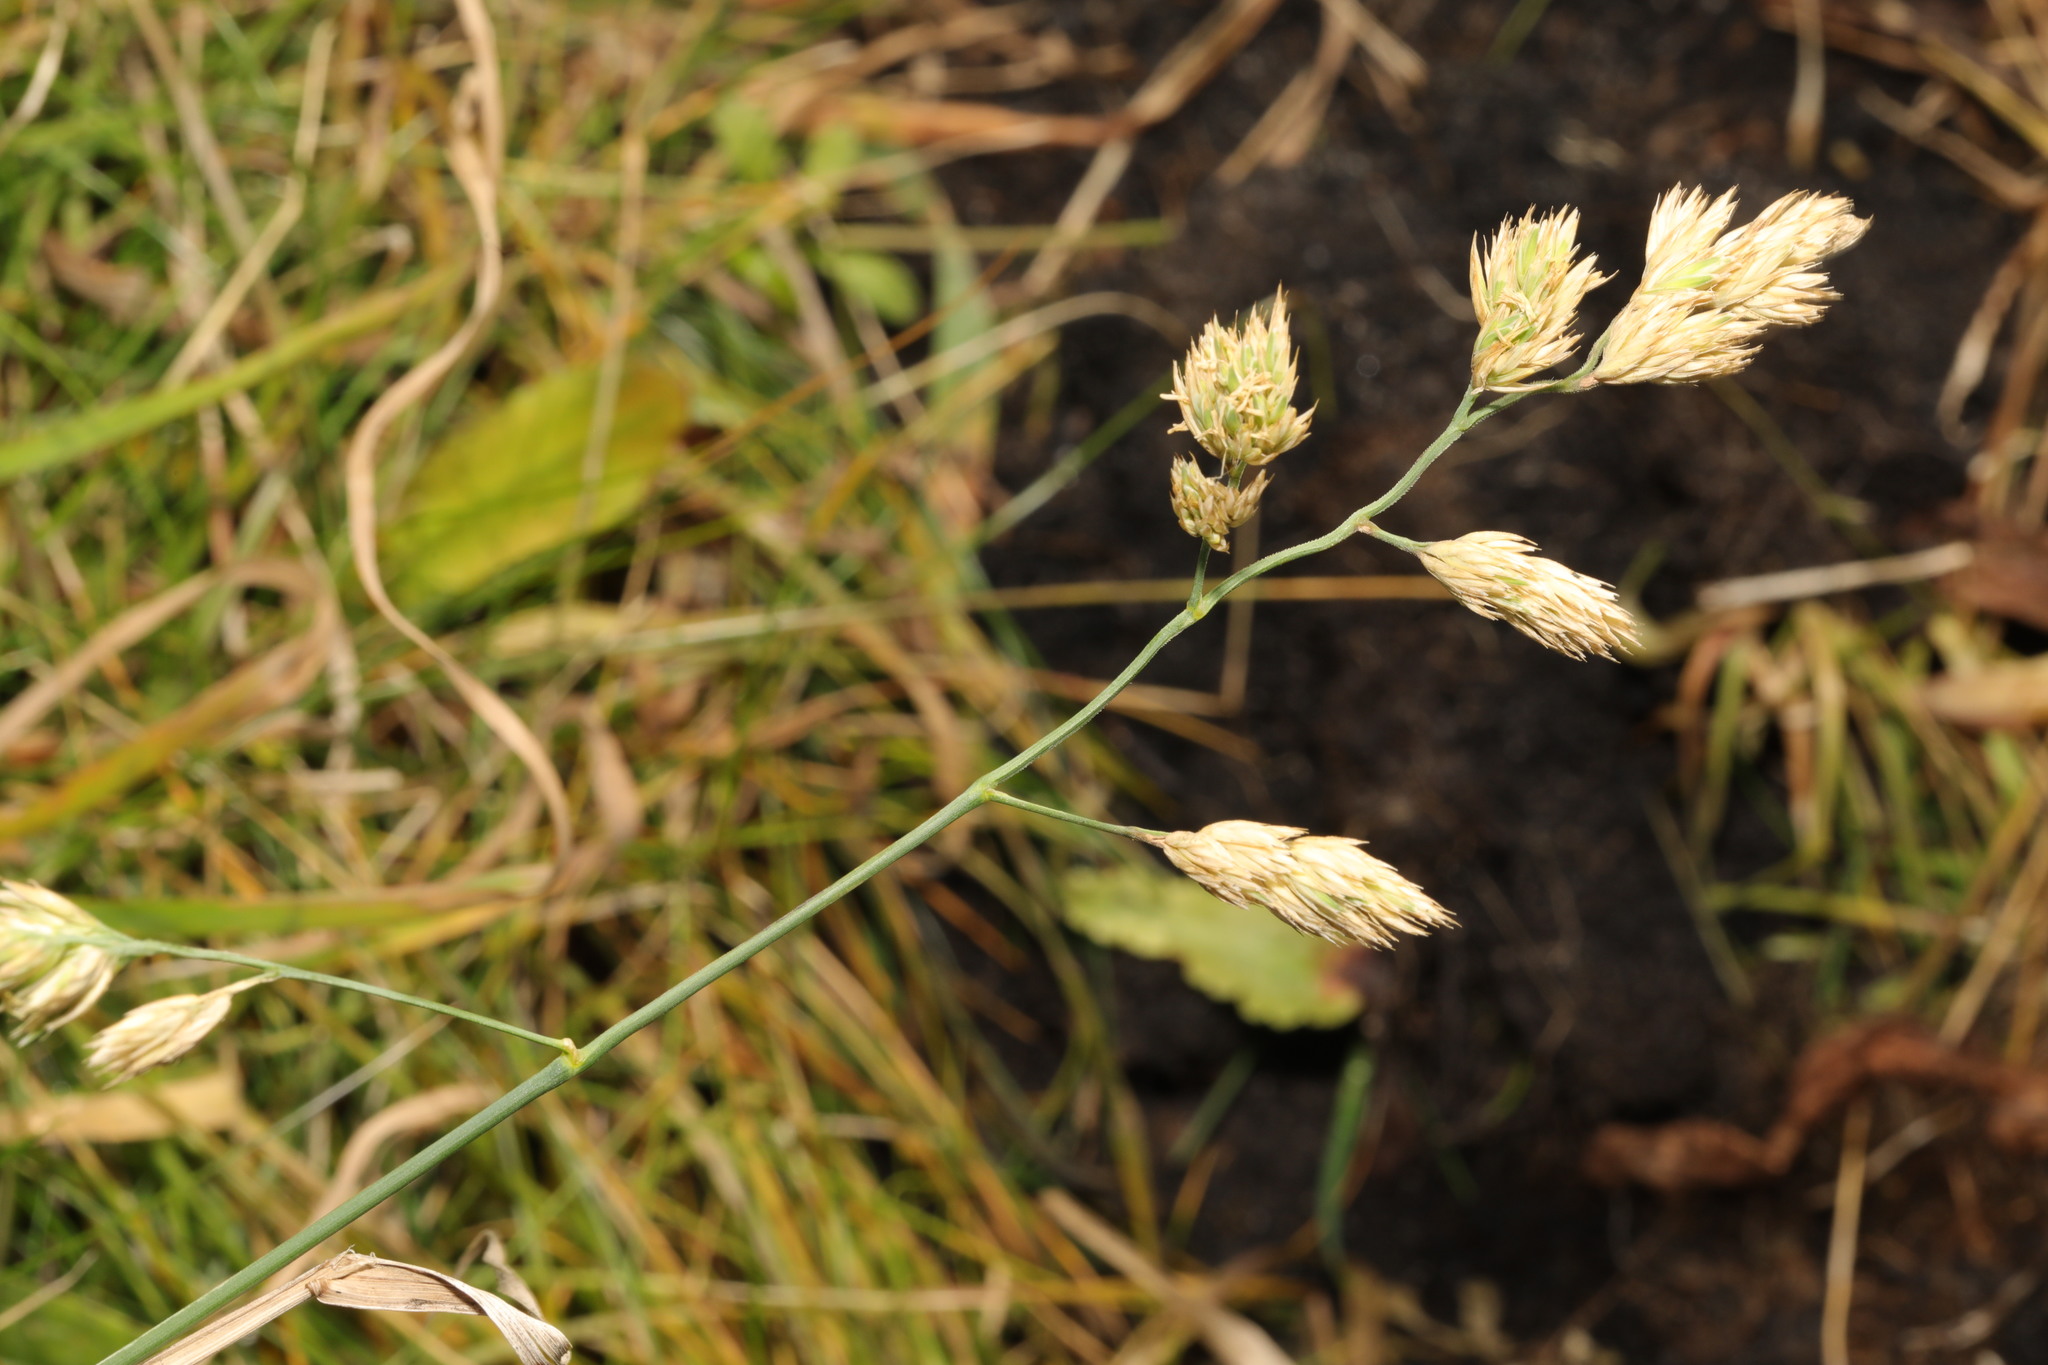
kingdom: Plantae
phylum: Tracheophyta
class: Liliopsida
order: Poales
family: Poaceae
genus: Dactylis
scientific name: Dactylis glomerata
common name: Orchardgrass
